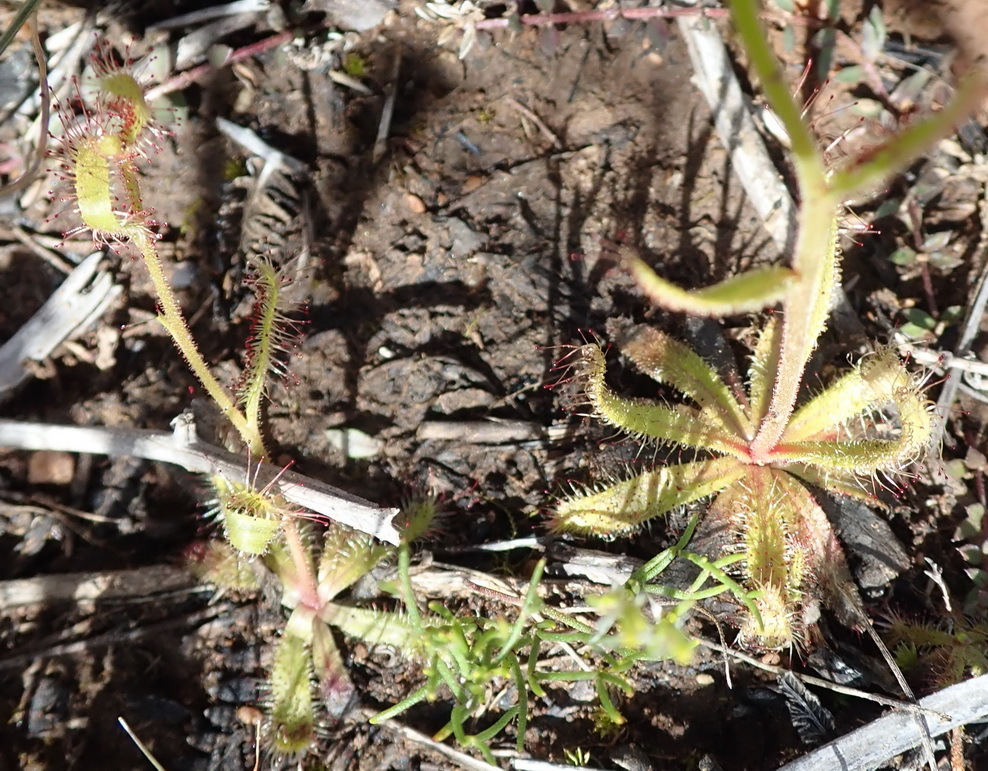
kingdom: Plantae
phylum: Tracheophyta
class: Magnoliopsida
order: Caryophyllales
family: Droseraceae
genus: Drosera
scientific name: Drosera cistiflora
